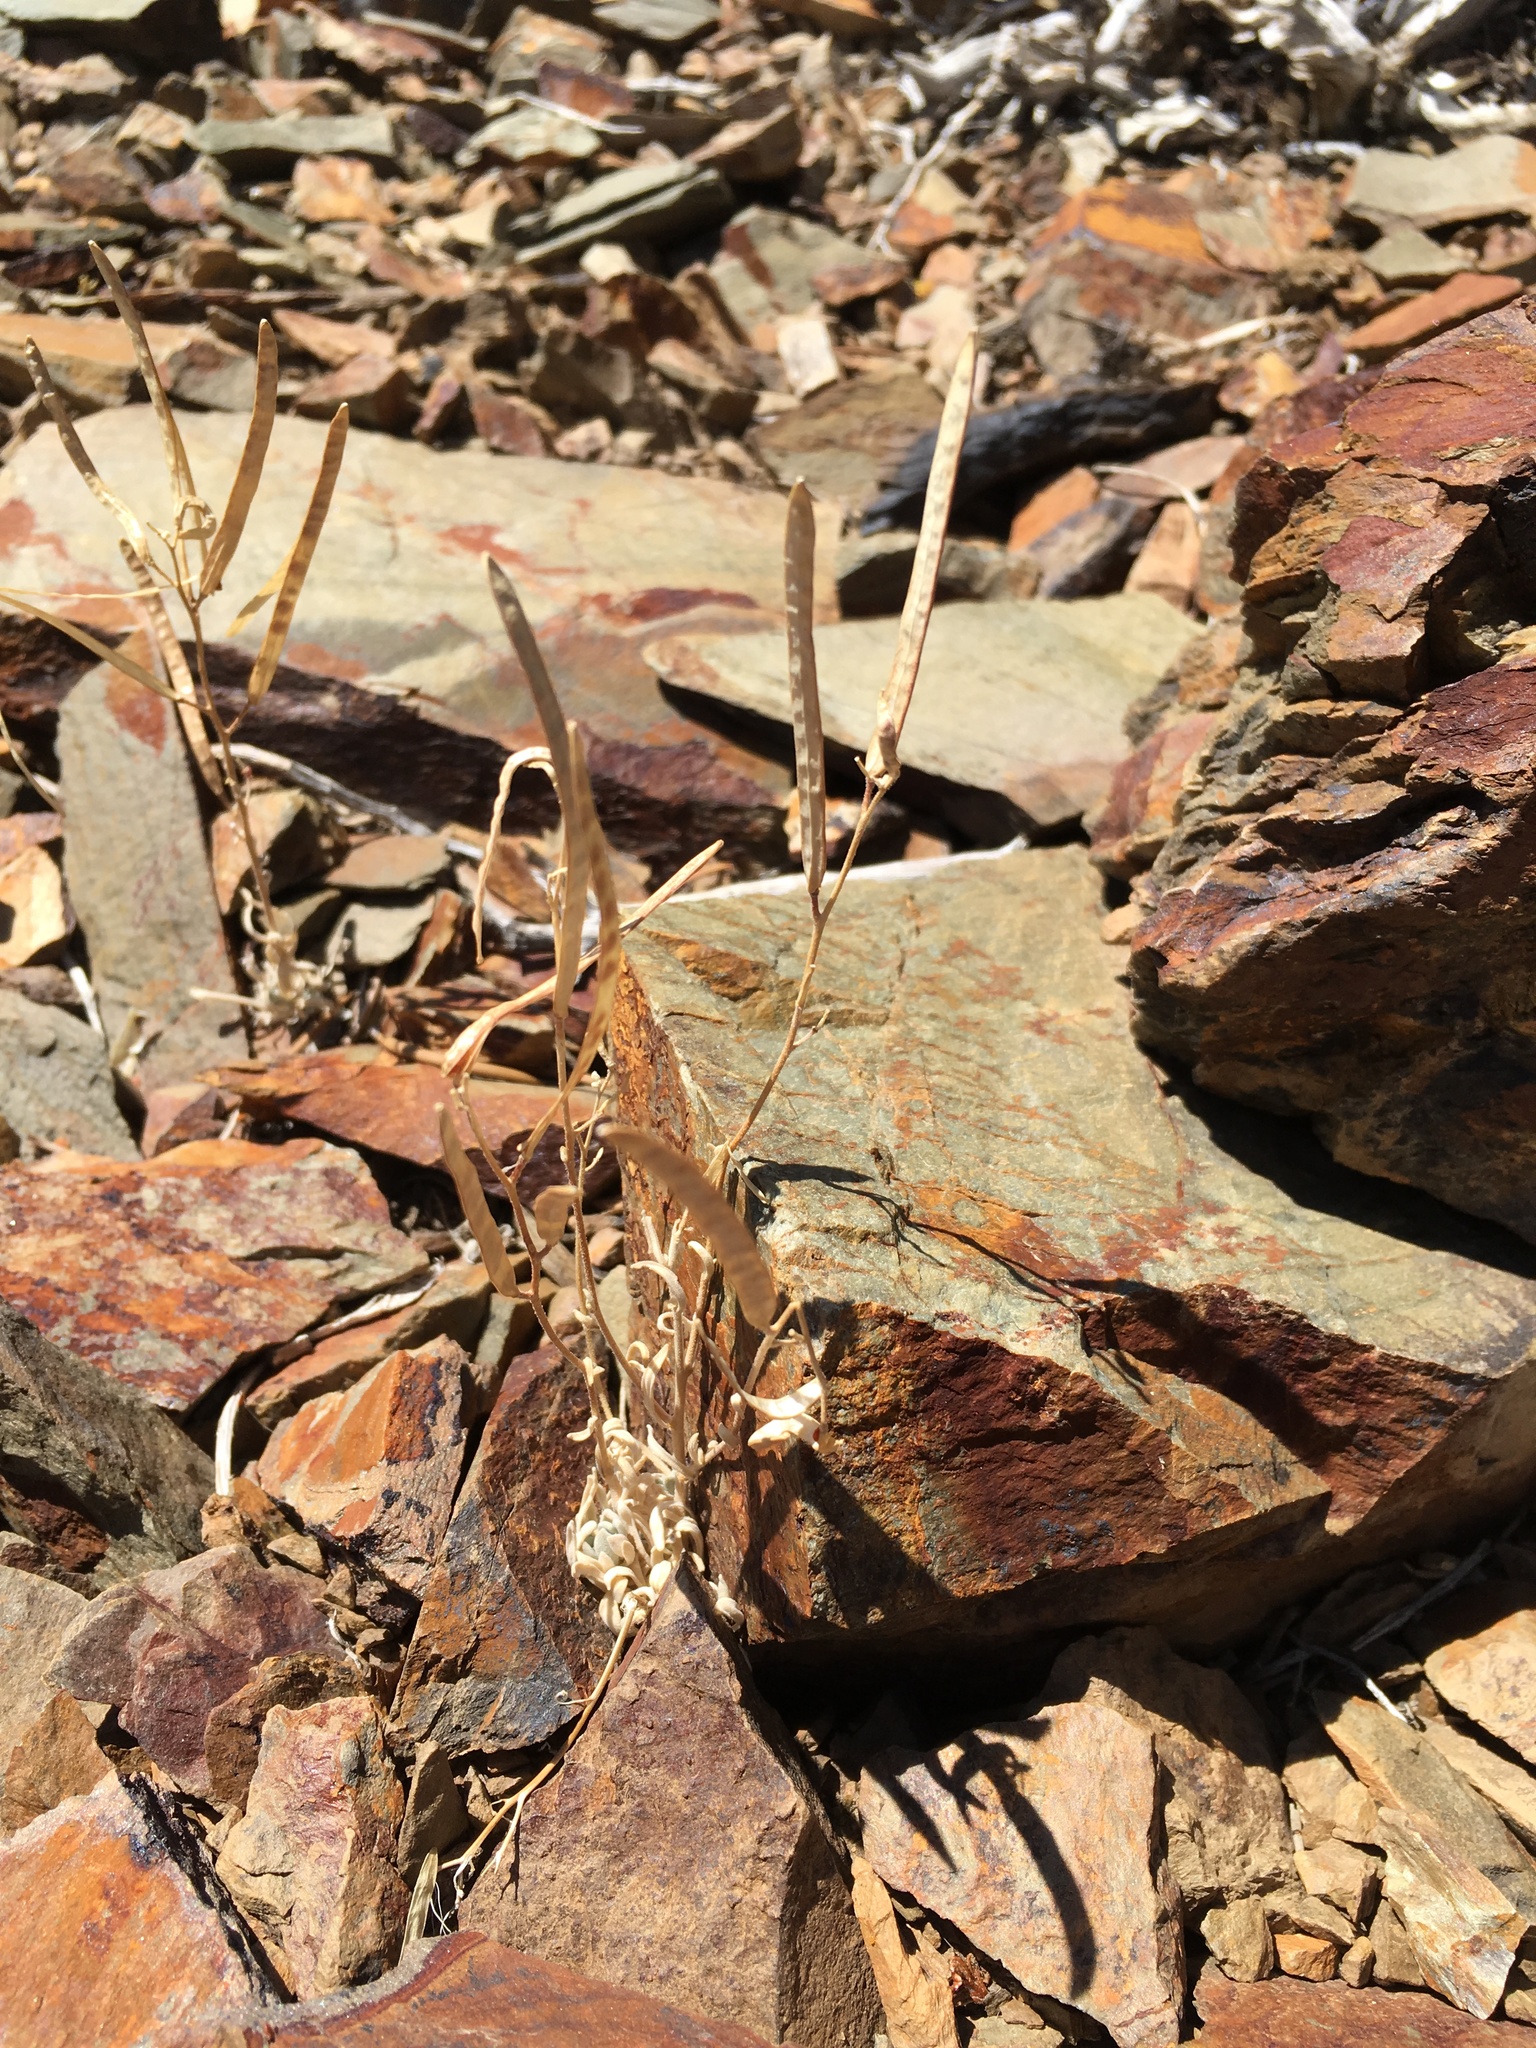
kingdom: Plantae
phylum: Tracheophyta
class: Magnoliopsida
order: Brassicales
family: Brassicaceae
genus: Boechera
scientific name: Boechera dispar
